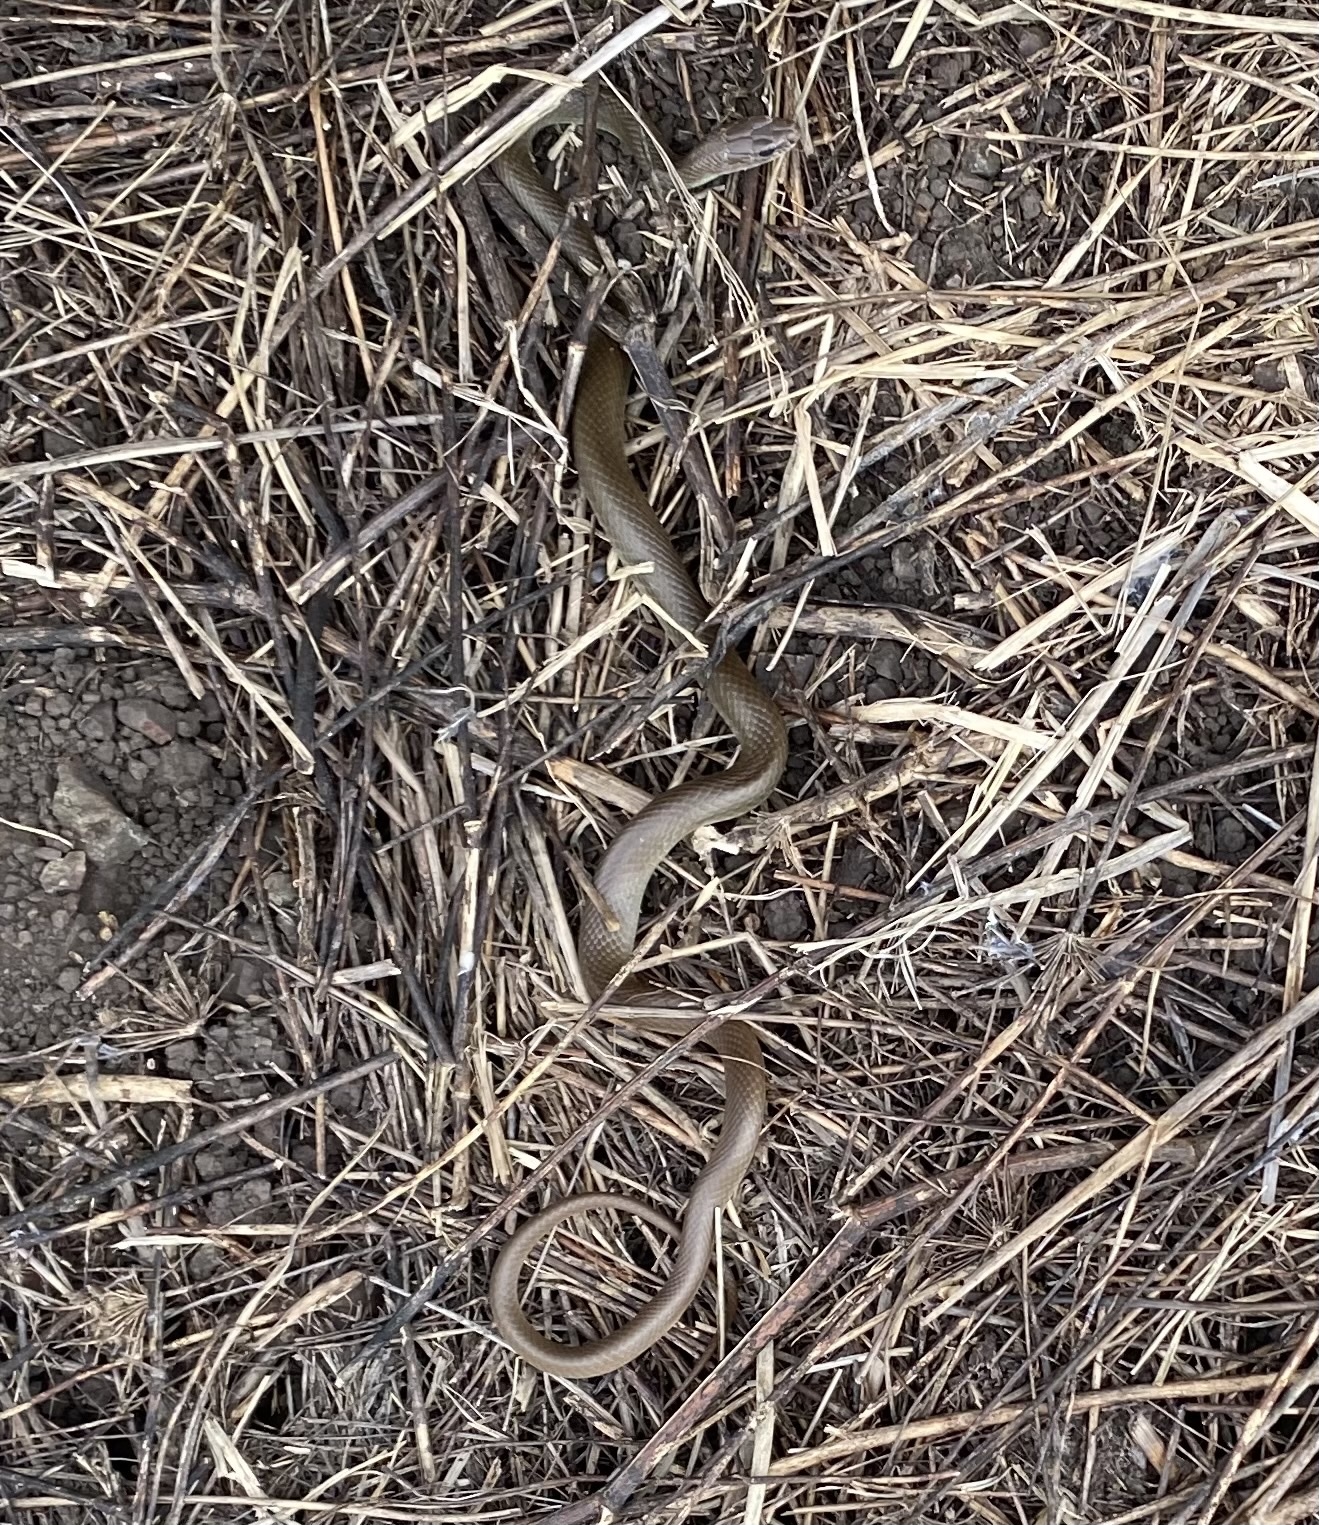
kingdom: Animalia
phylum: Chordata
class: Squamata
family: Colubridae
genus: Coluber
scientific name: Coluber constrictor
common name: Eastern racer
